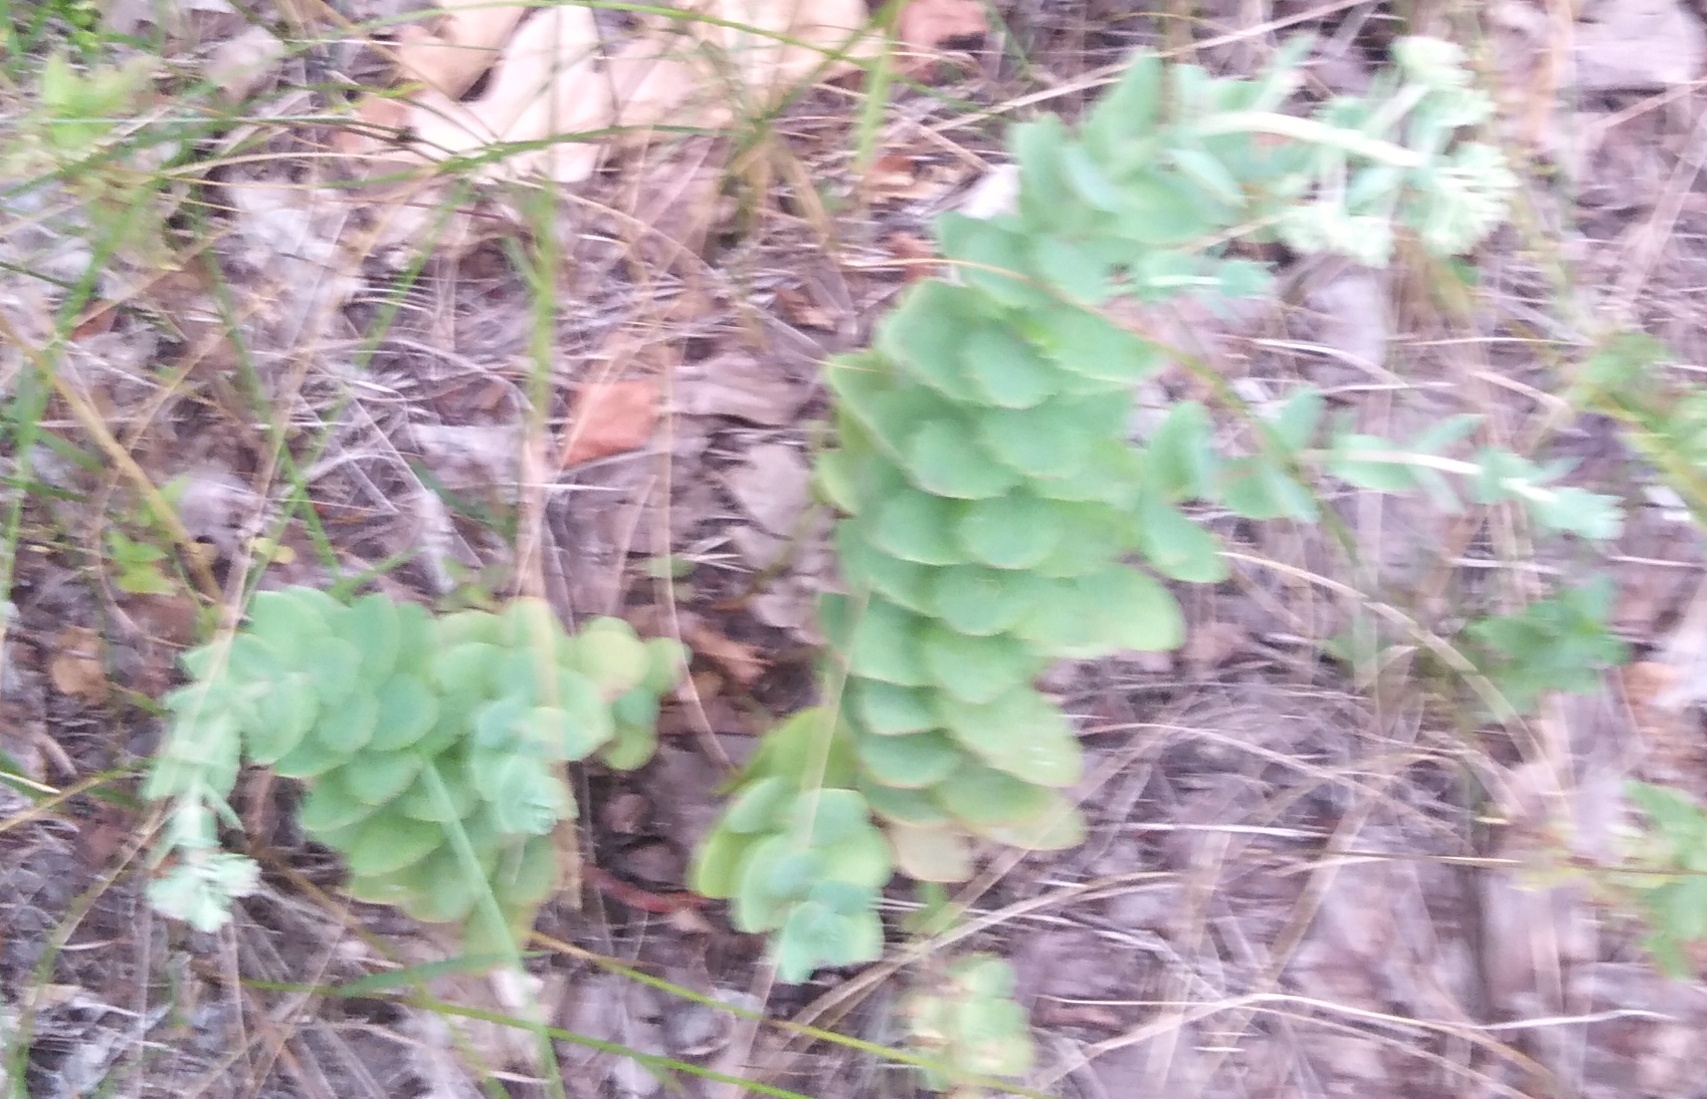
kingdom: Plantae
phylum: Tracheophyta
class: Magnoliopsida
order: Saxifragales
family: Crassulaceae
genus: Hylotelephium
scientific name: Hylotelephium maximum
